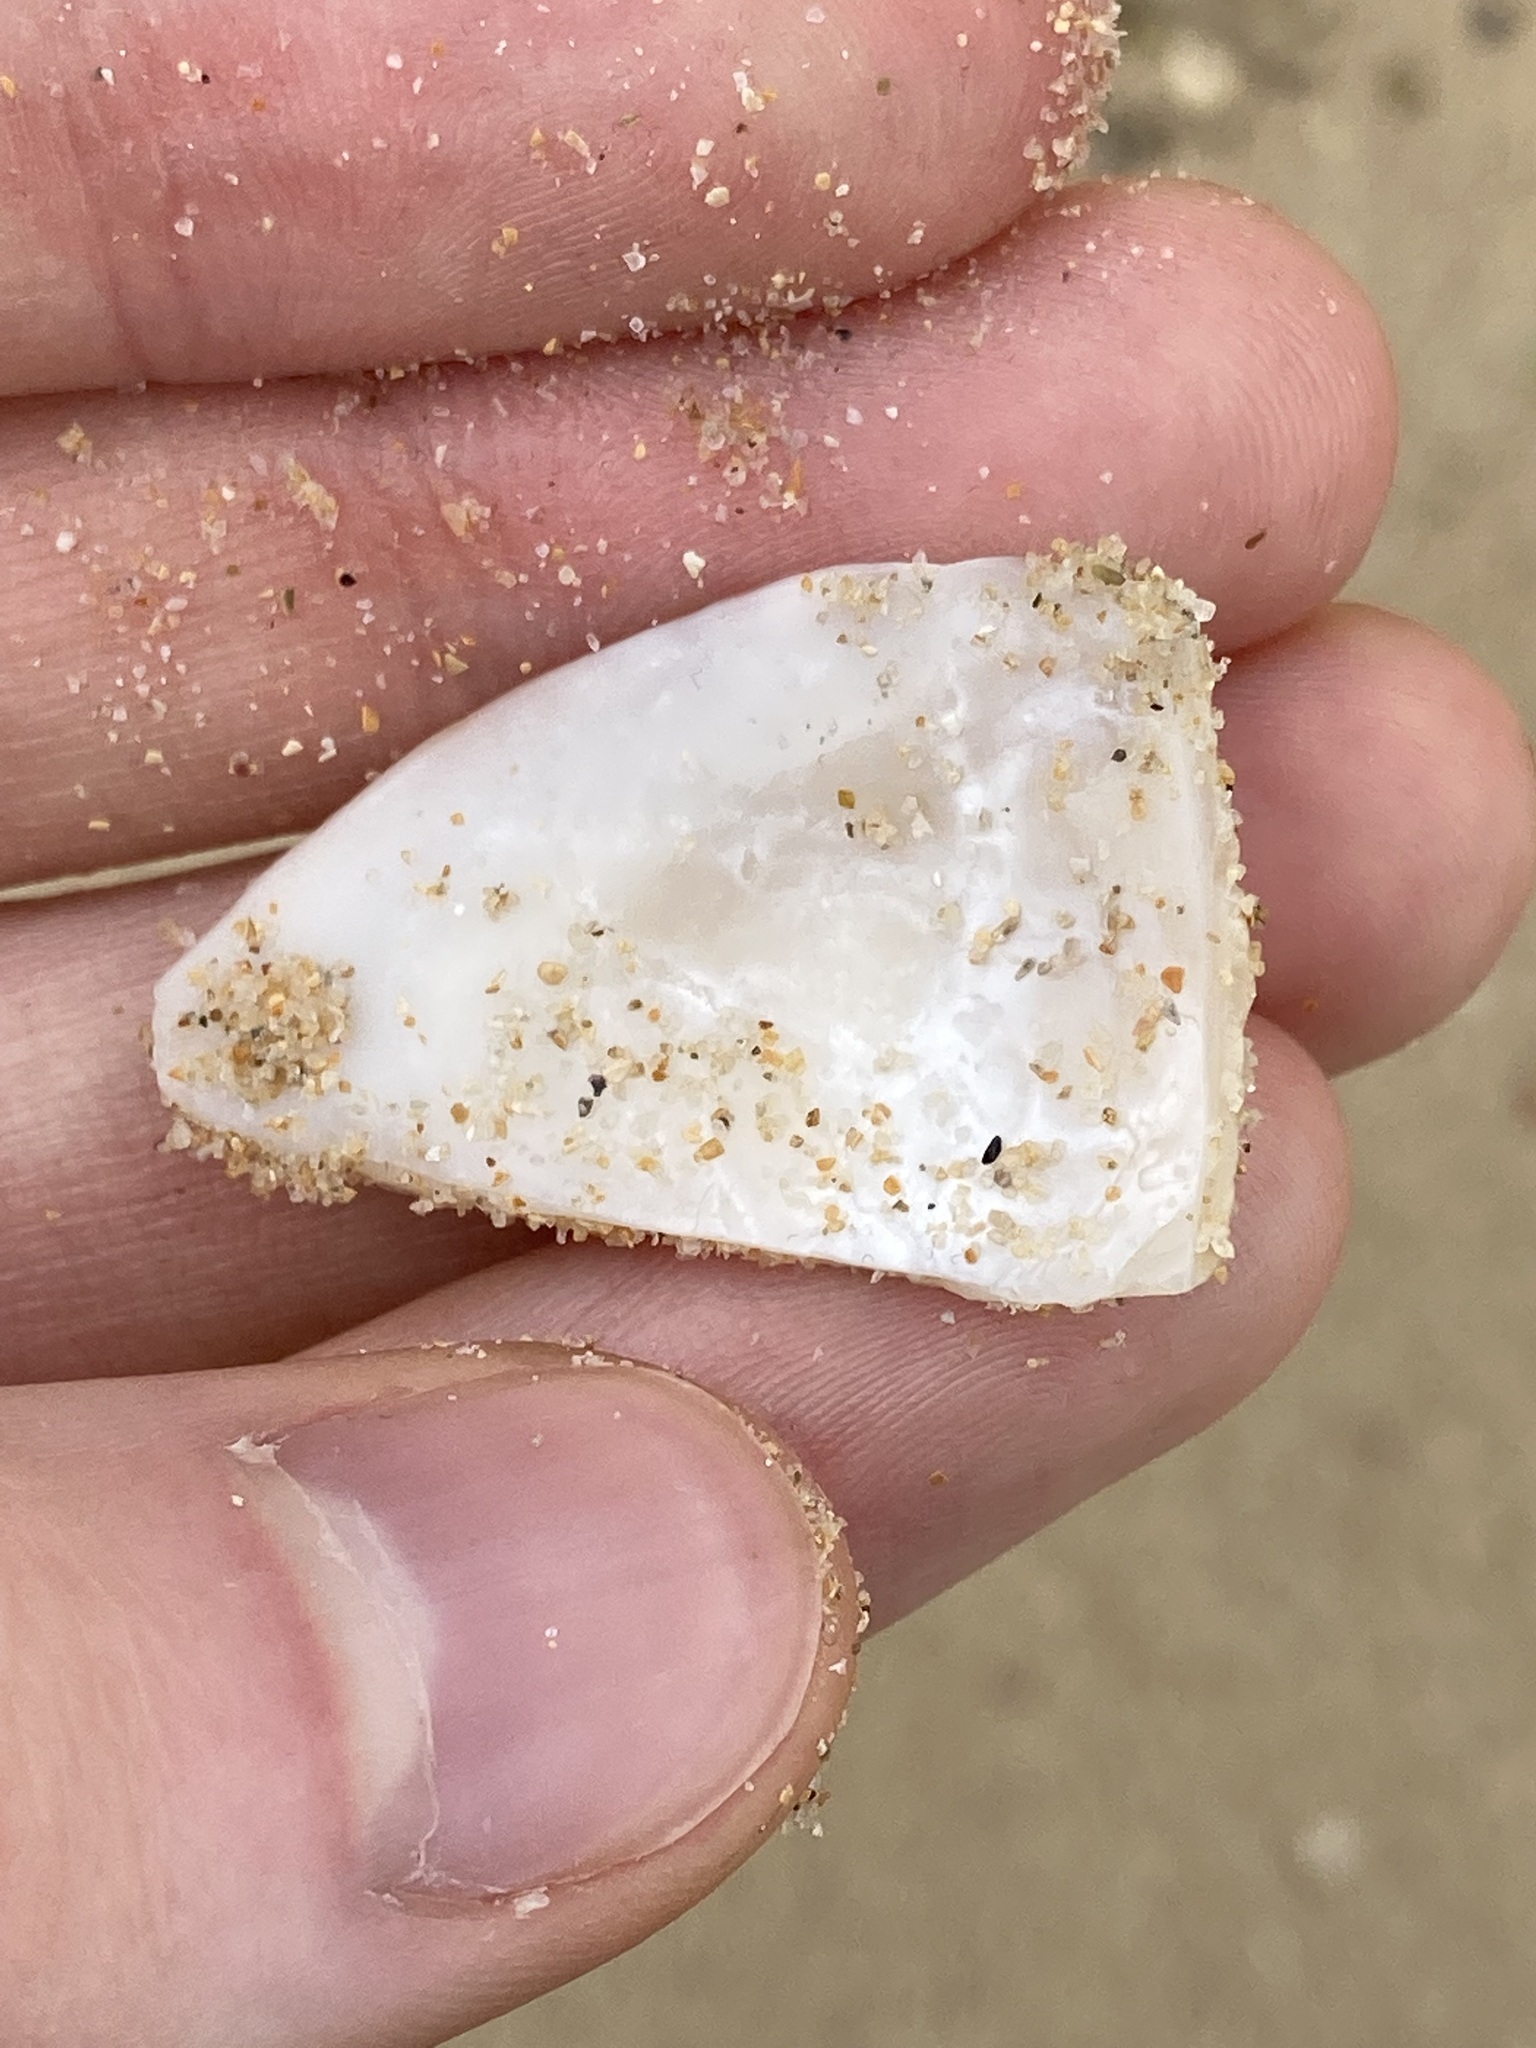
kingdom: Animalia
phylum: Mollusca
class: Bivalvia
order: Venerida
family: Veneridae
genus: Tapes
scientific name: Tapes conspersus
